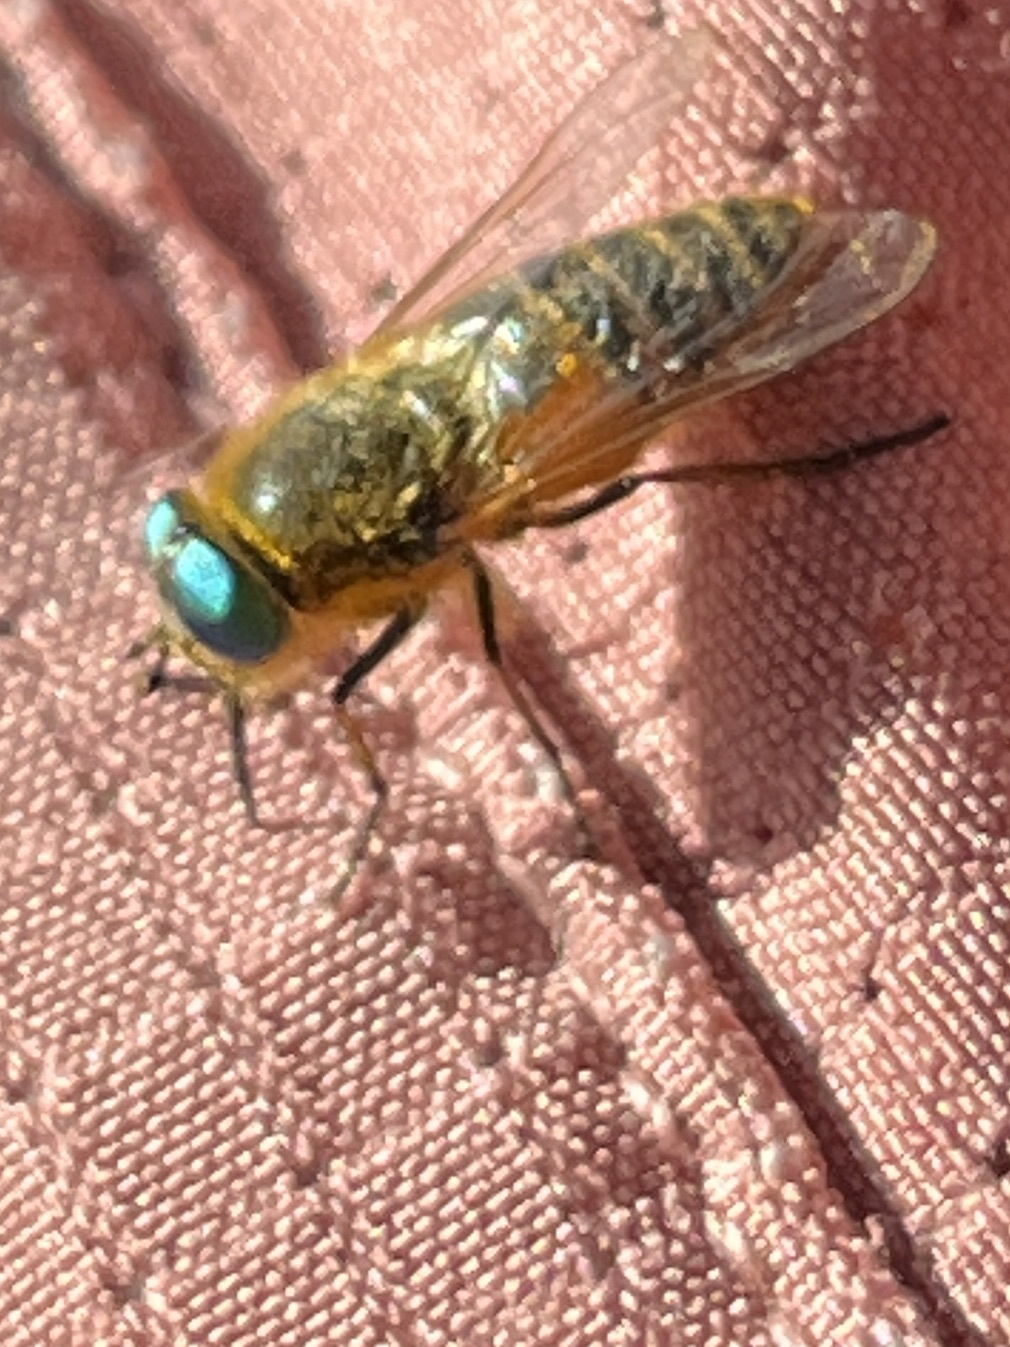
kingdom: Animalia
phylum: Arthropoda
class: Insecta
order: Diptera
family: Tabanidae
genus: Rhigioglossa
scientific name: Rhigioglossa edentula
